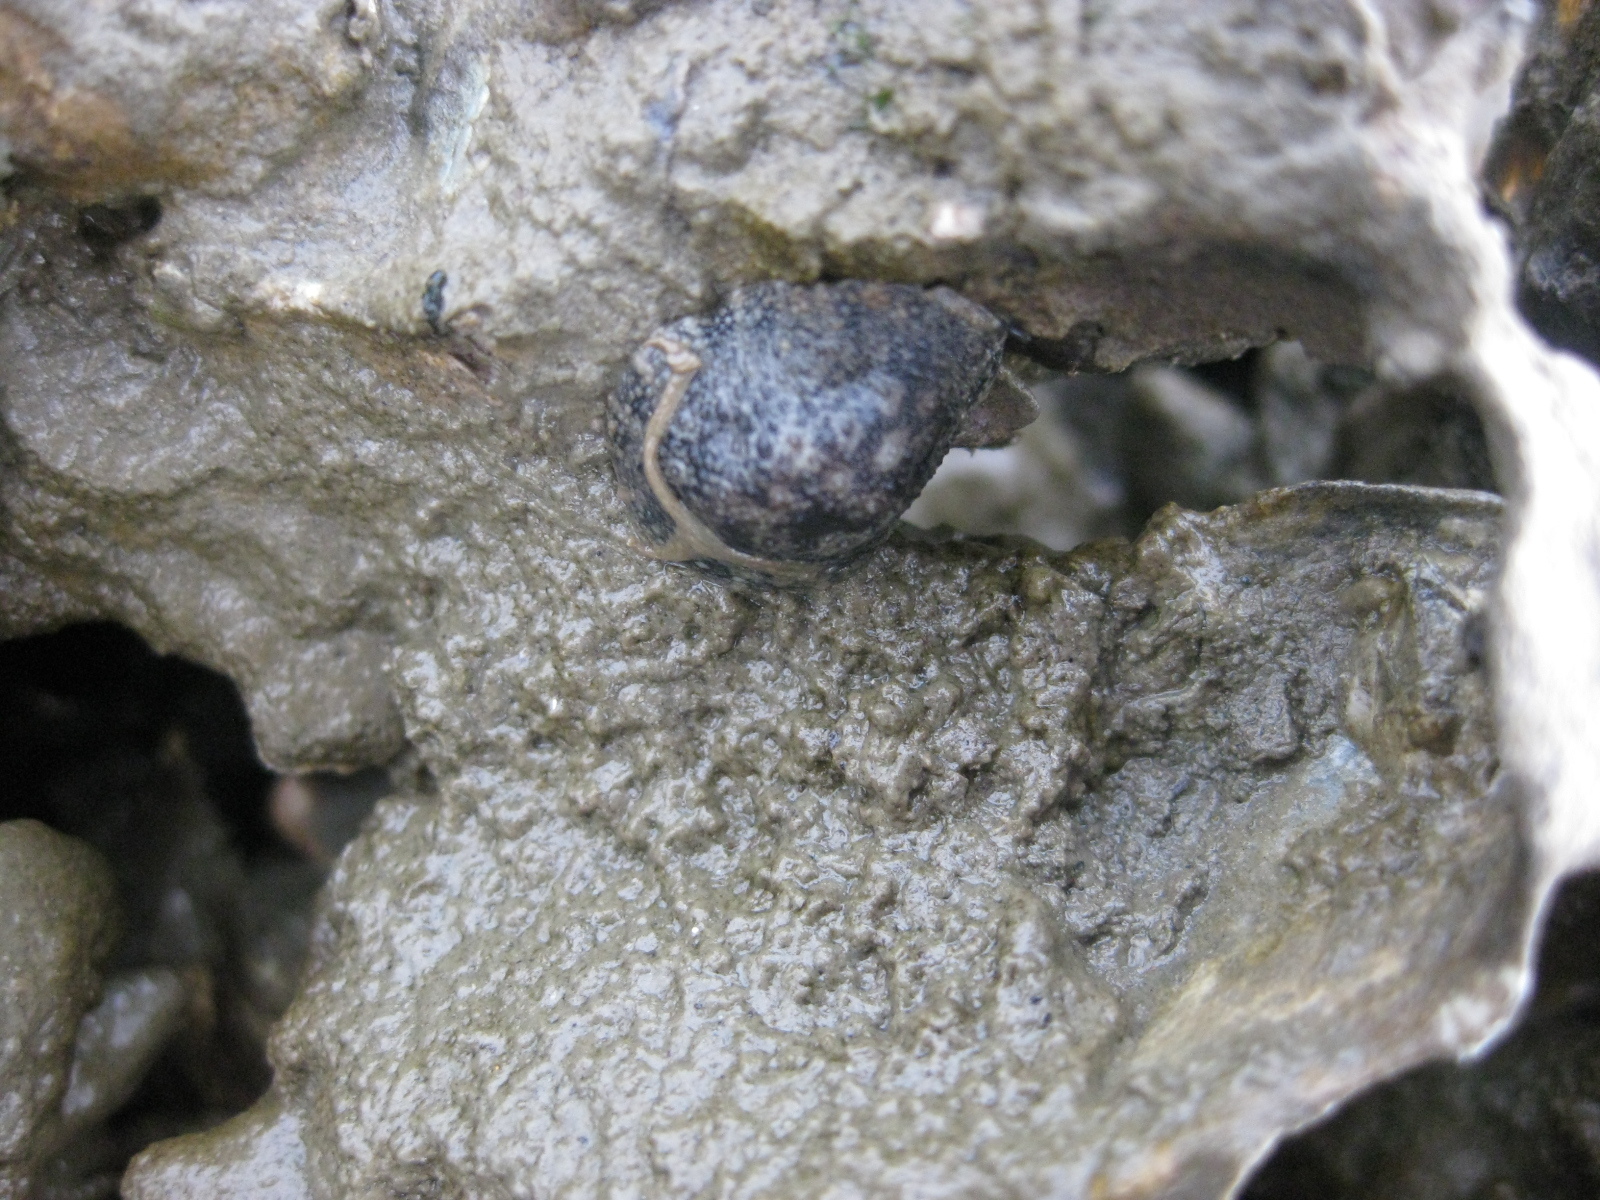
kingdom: Animalia
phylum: Mollusca
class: Gastropoda
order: Systellommatophora
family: Onchidiidae
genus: Onchidella
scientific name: Onchidella nigricans
